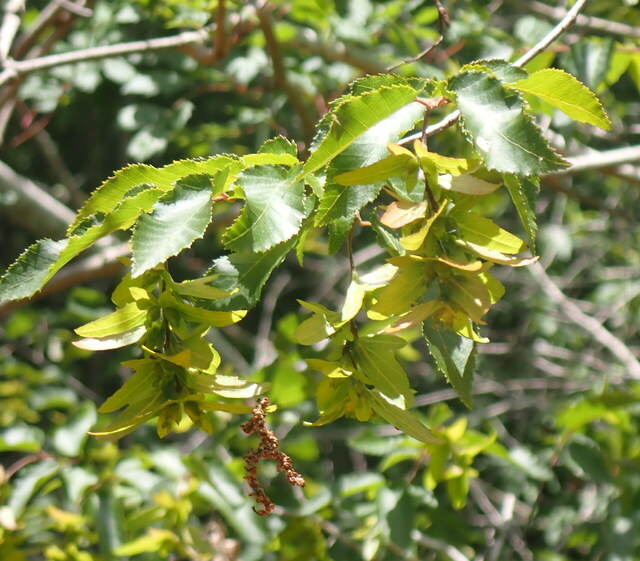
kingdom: Plantae
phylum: Tracheophyta
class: Magnoliopsida
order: Fagales
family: Betulaceae
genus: Carpinus
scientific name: Carpinus caroliniana
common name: American hornbeam
